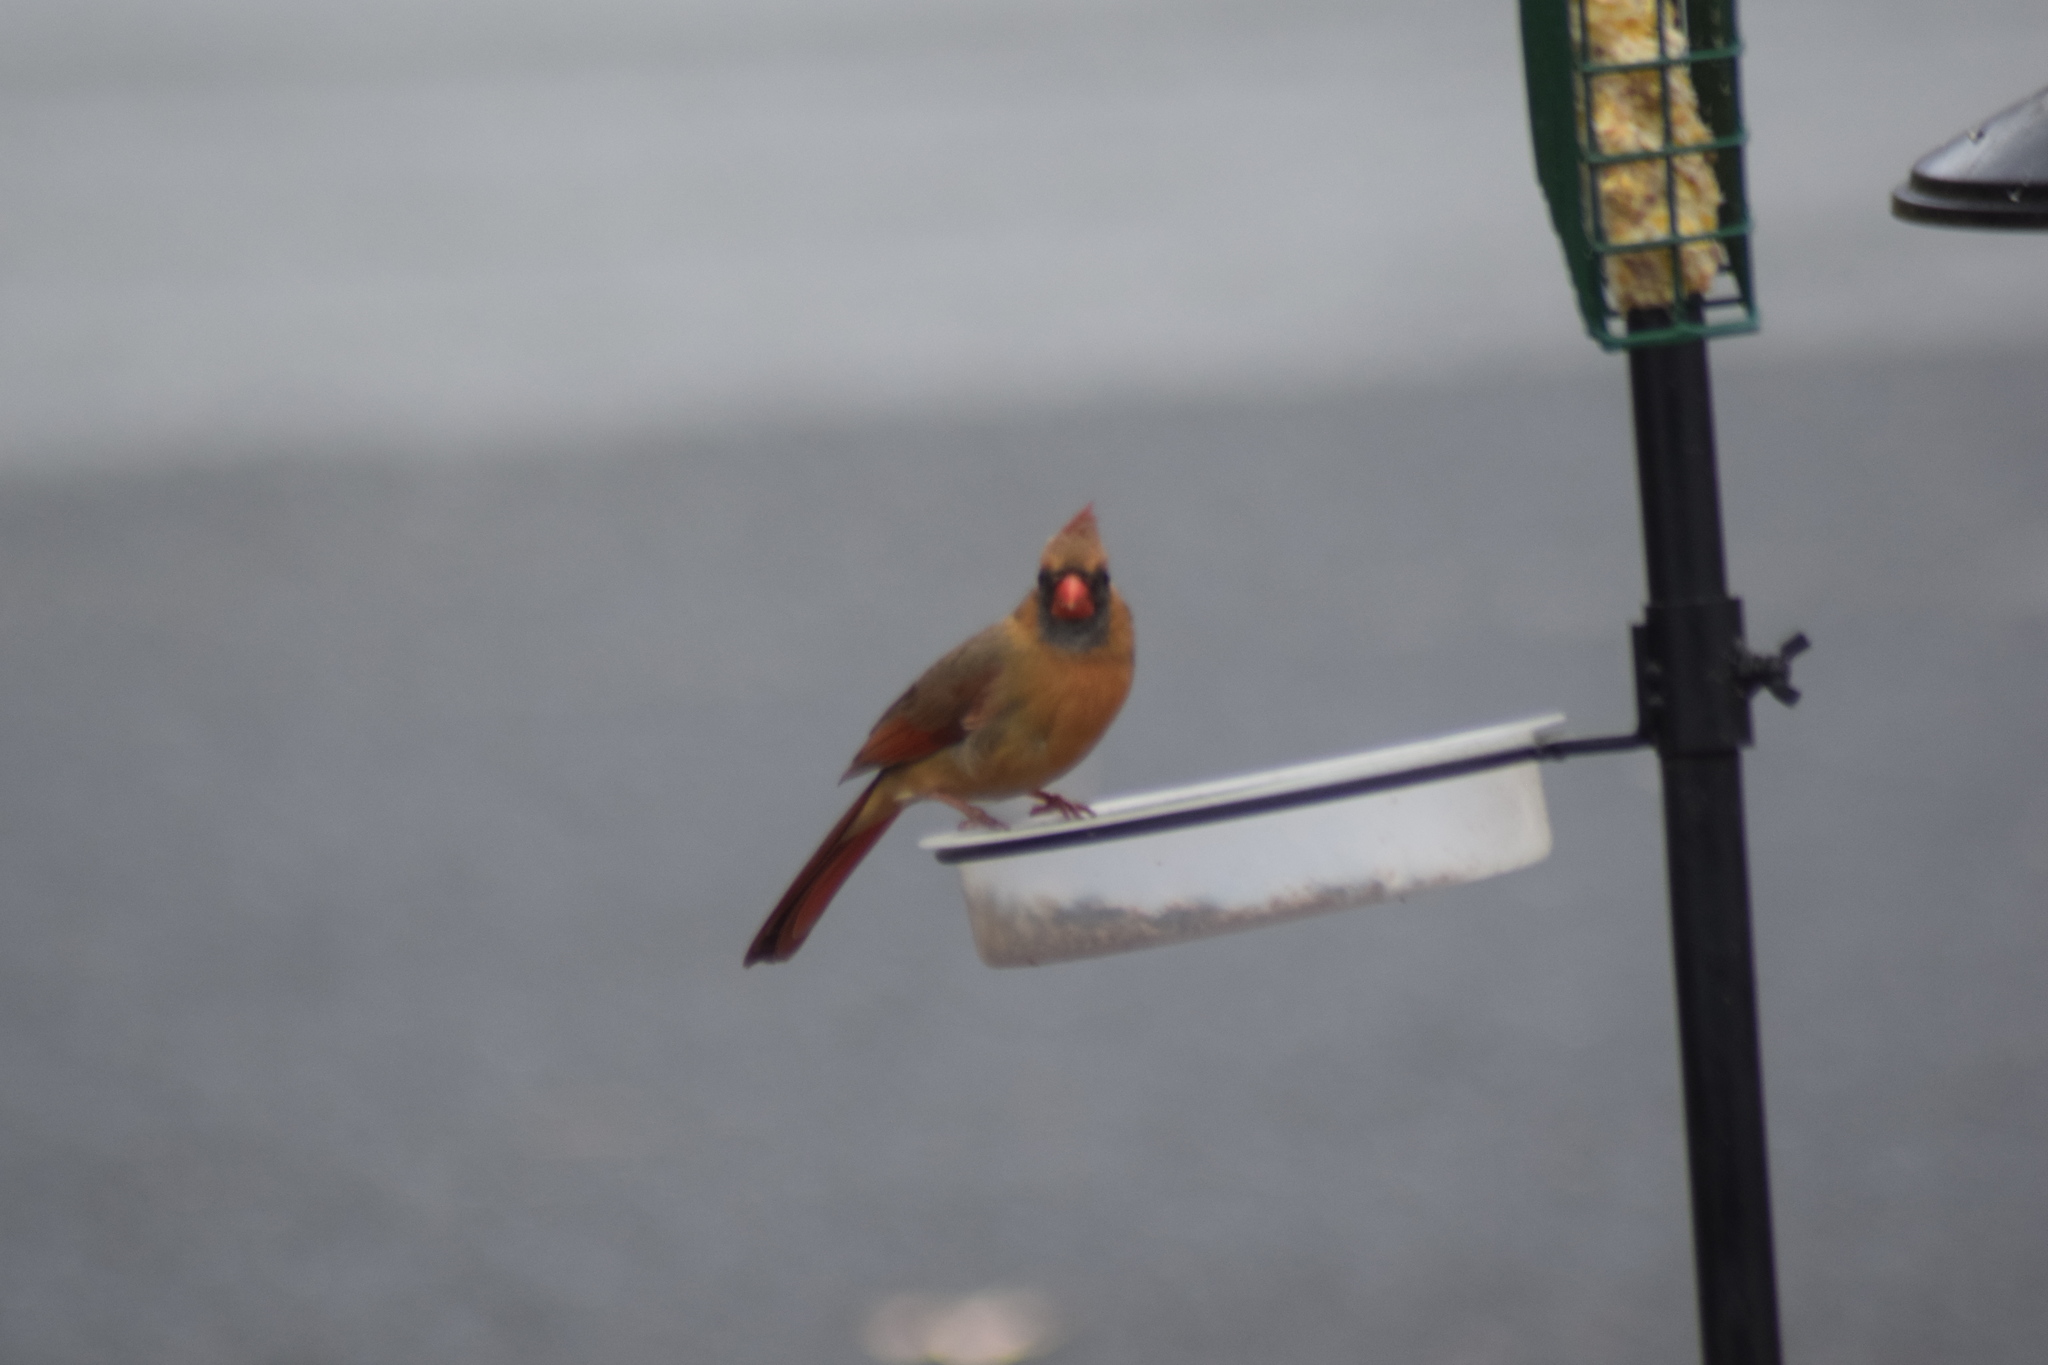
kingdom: Animalia
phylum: Chordata
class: Aves
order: Passeriformes
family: Cardinalidae
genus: Cardinalis
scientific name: Cardinalis cardinalis
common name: Northern cardinal
